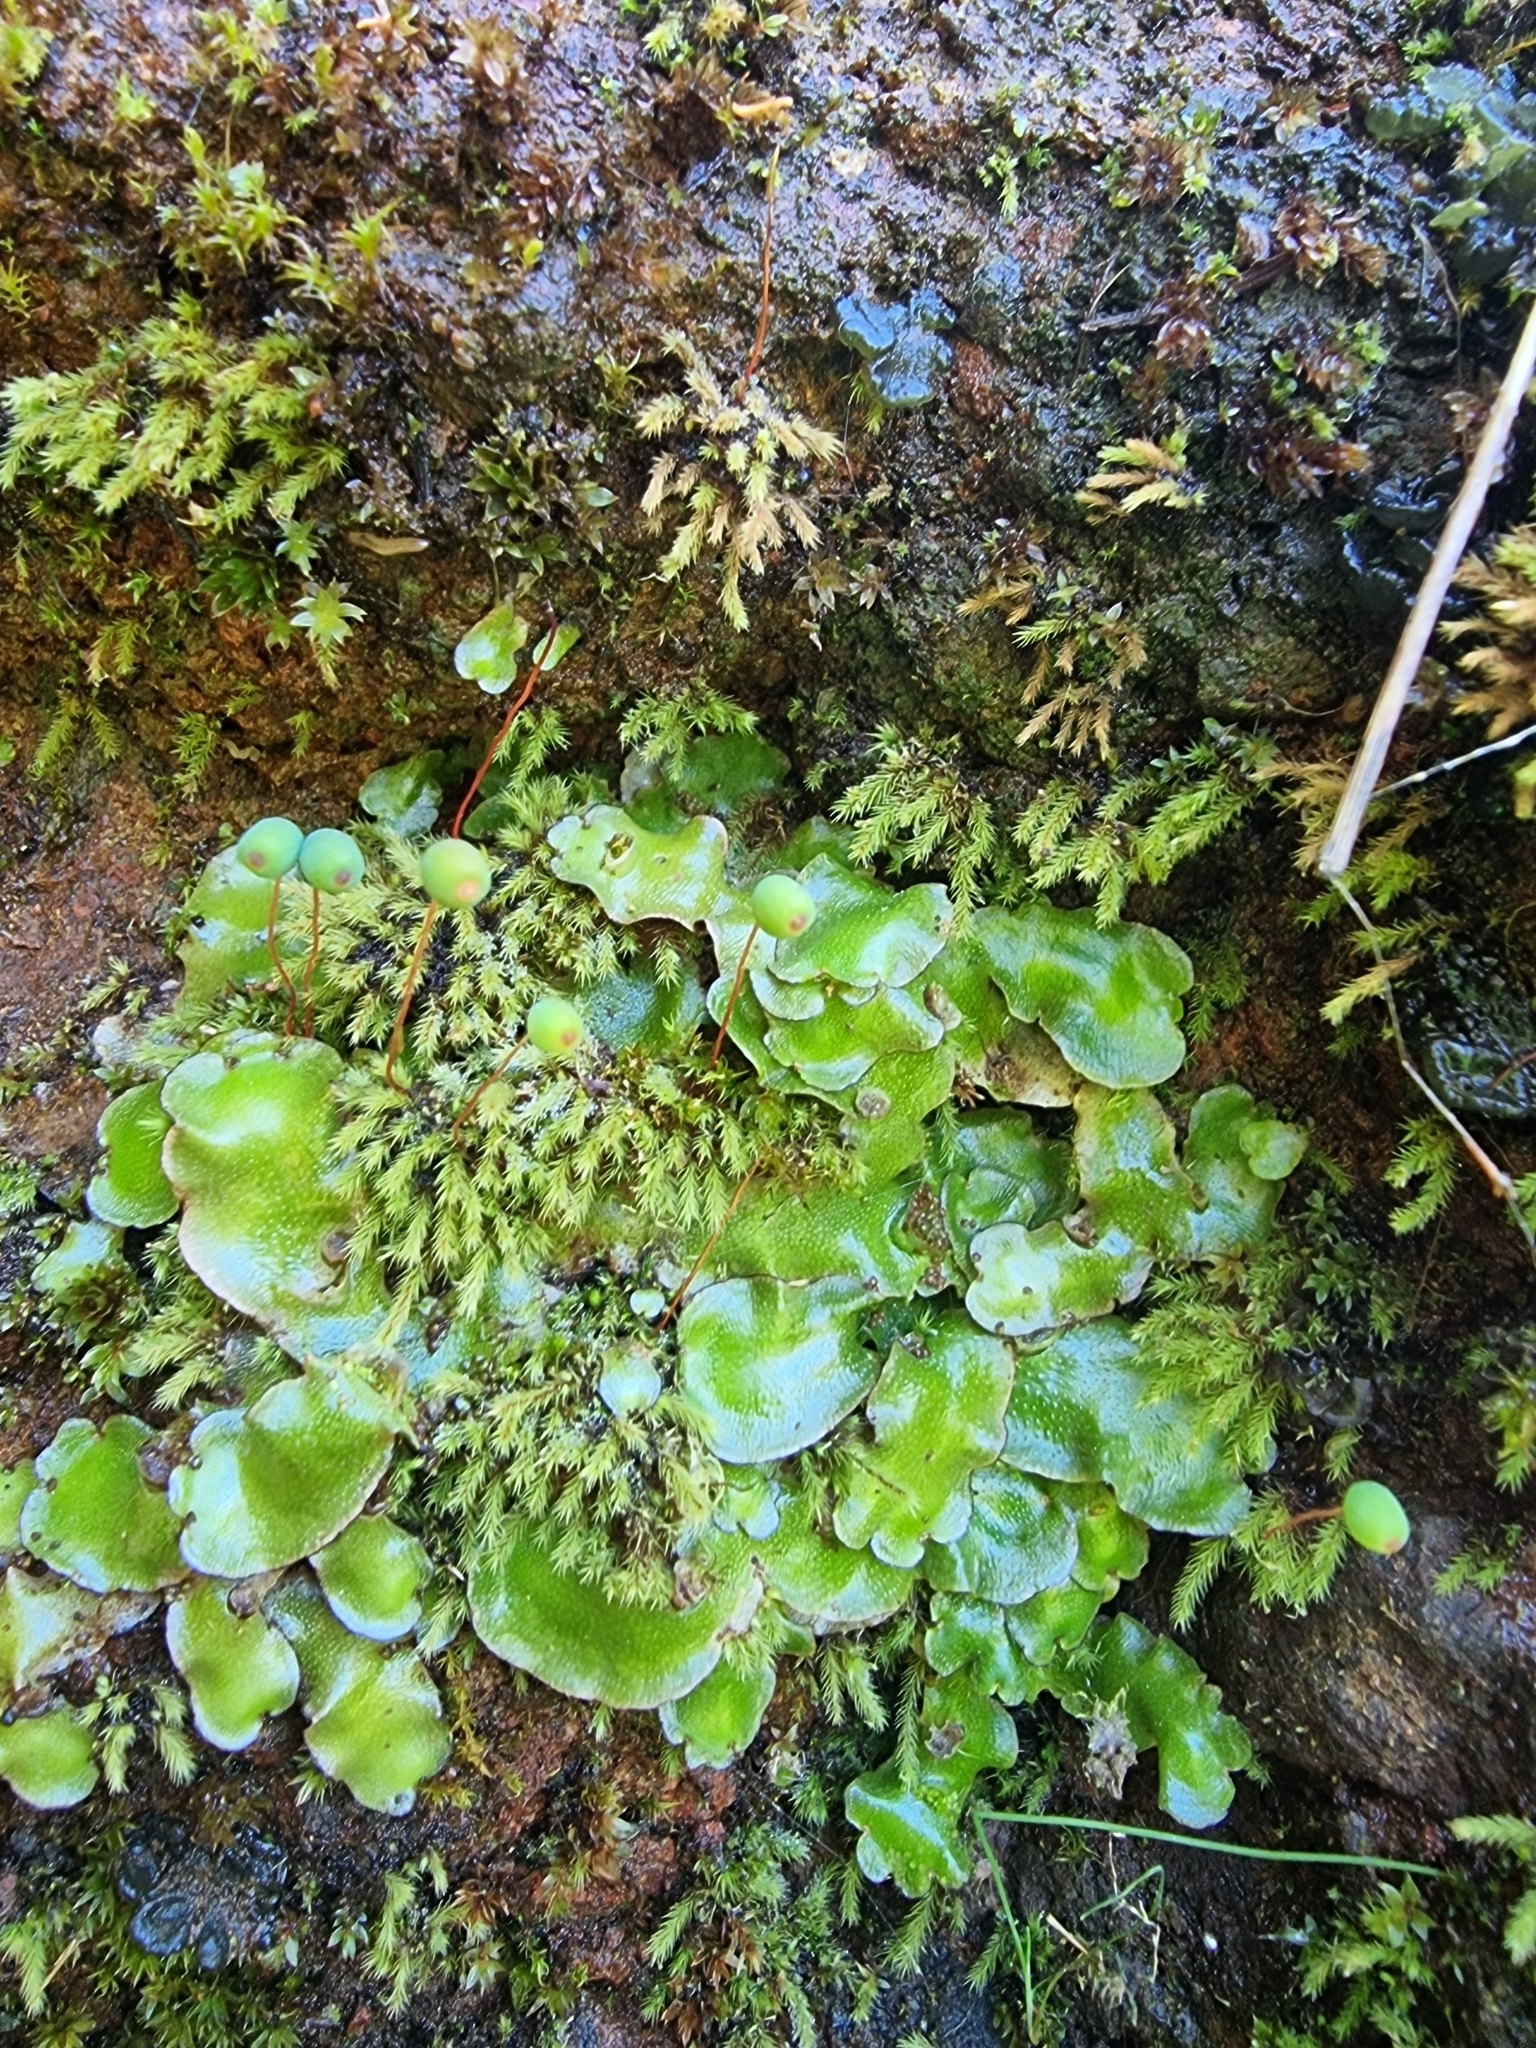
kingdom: Plantae
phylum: Marchantiophyta
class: Marchantiopsida
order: Lunulariales
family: Lunulariaceae
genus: Lunularia
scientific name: Lunularia cruciata
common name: Crescent-cup liverwort
